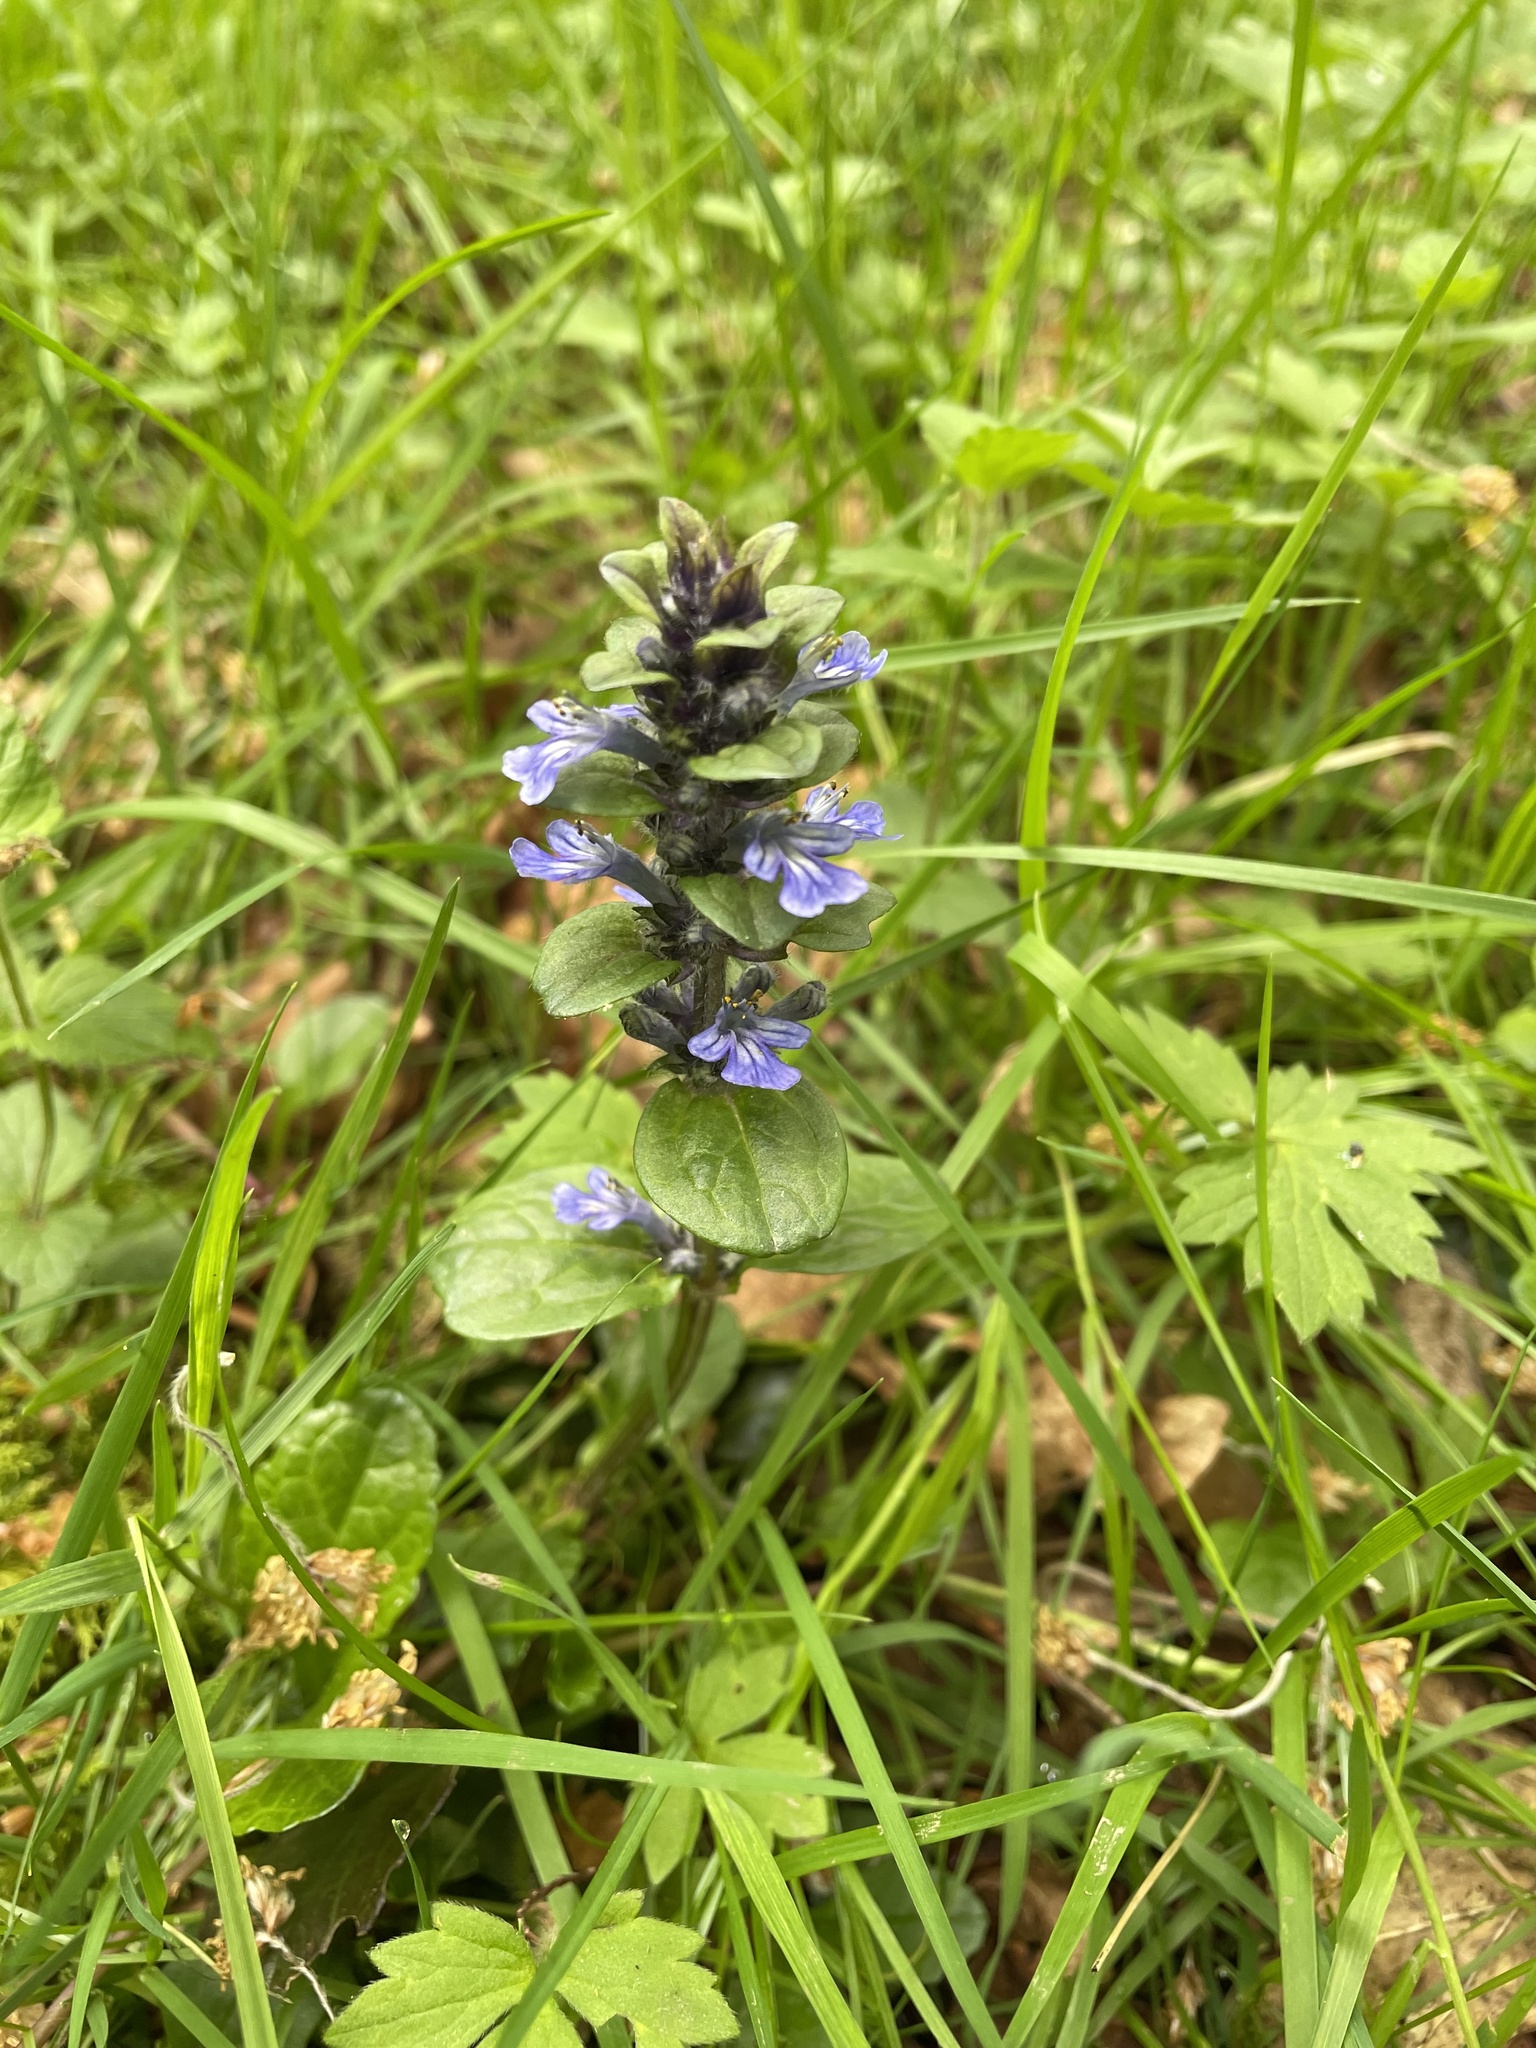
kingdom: Plantae
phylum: Tracheophyta
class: Magnoliopsida
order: Lamiales
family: Lamiaceae
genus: Ajuga
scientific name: Ajuga reptans
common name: Bugle
